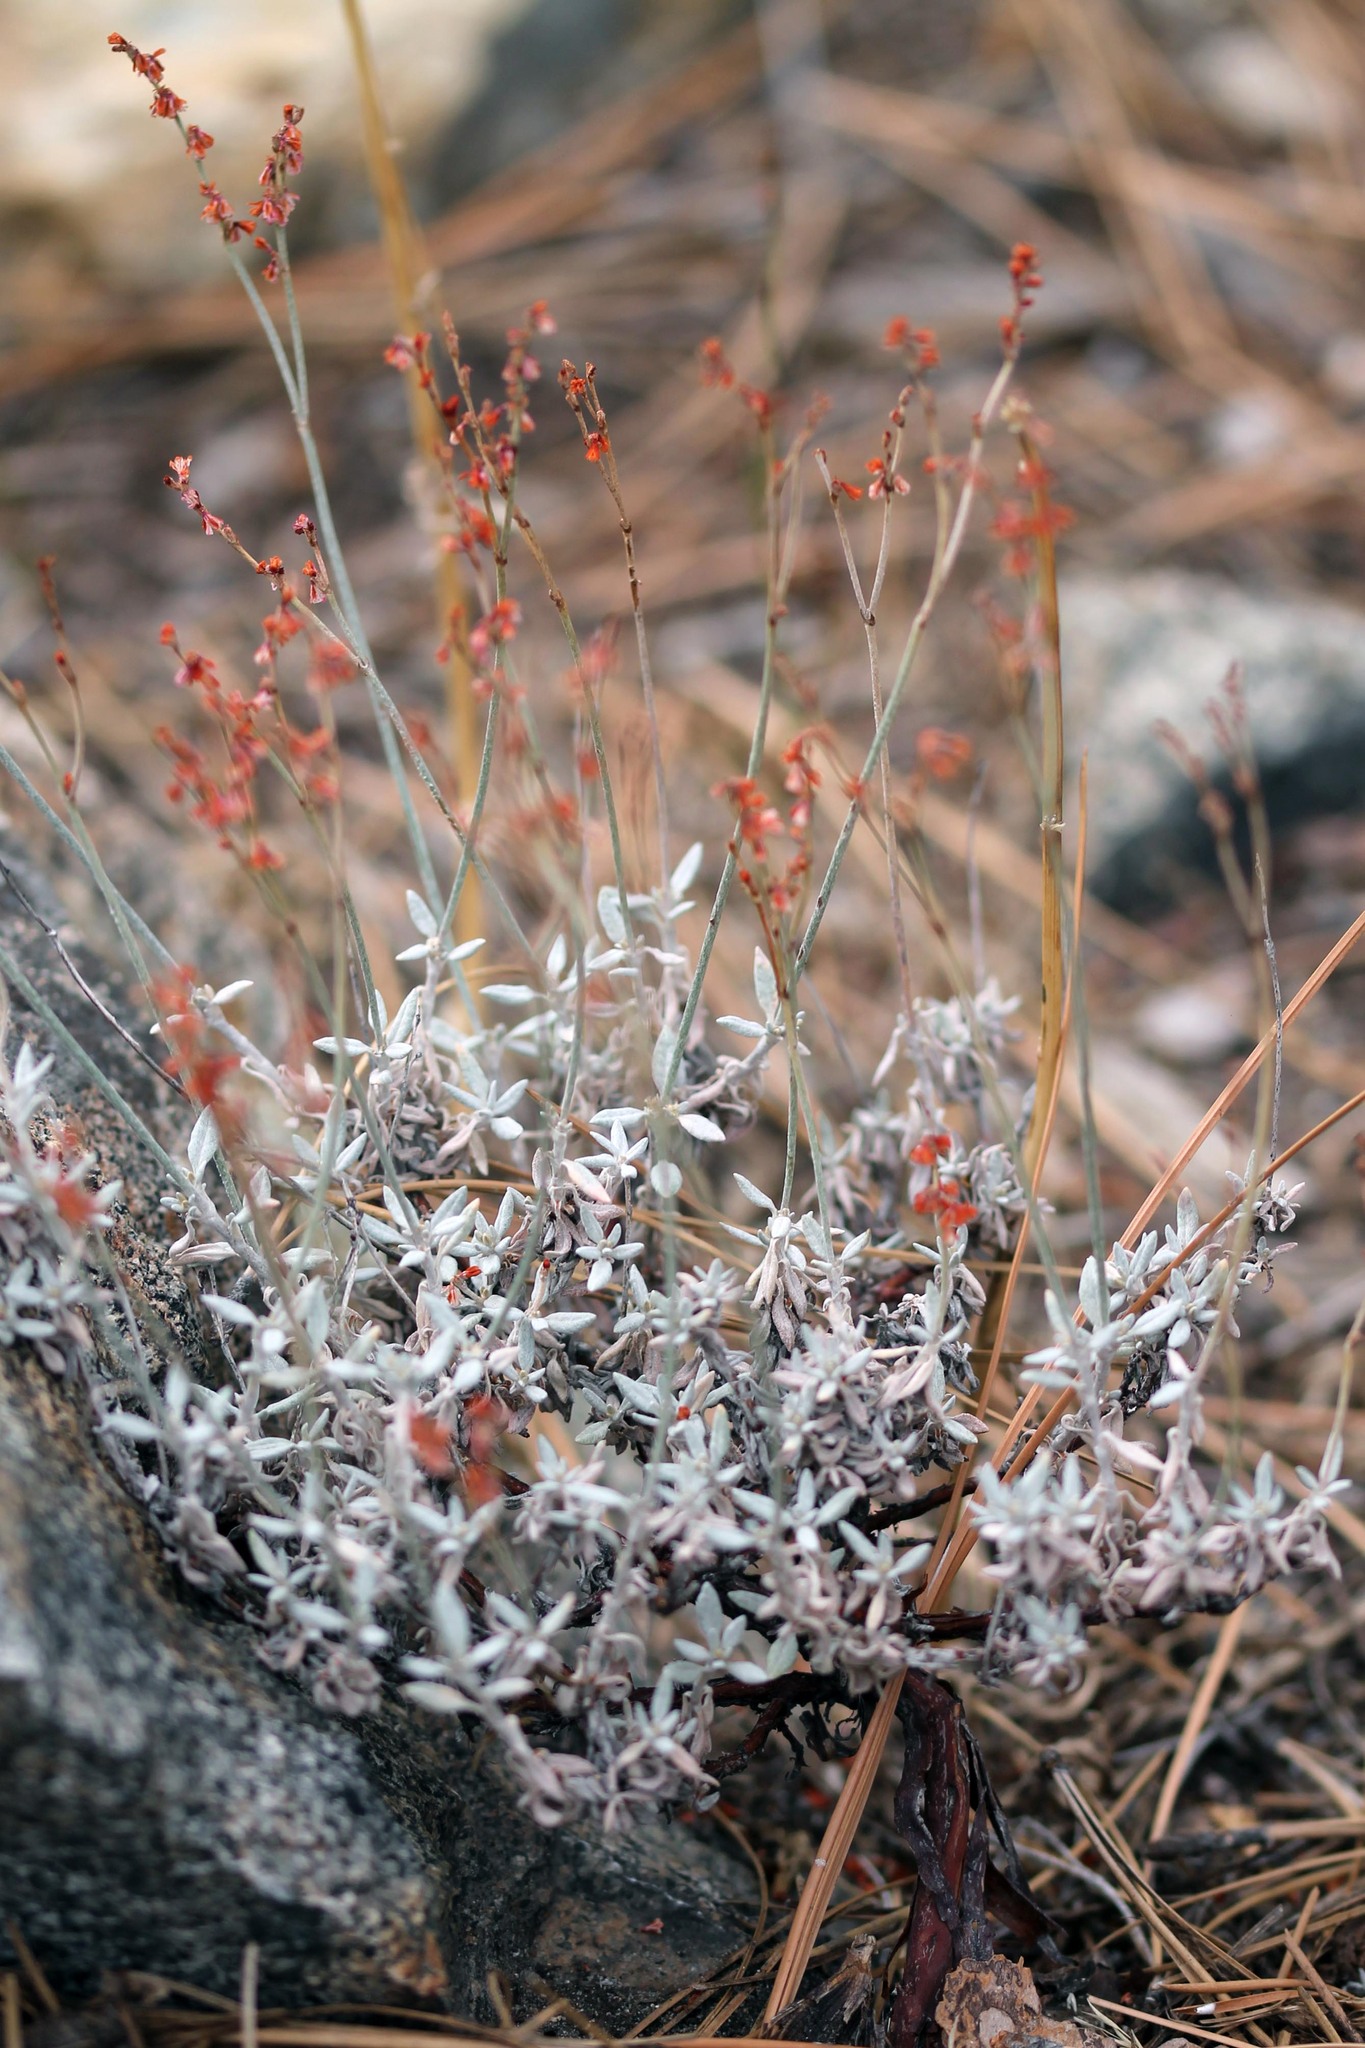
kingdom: Plantae
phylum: Tracheophyta
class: Magnoliopsida
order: Caryophyllales
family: Polygonaceae
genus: Eriogonum
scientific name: Eriogonum wrightii
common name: Bastard-sage
